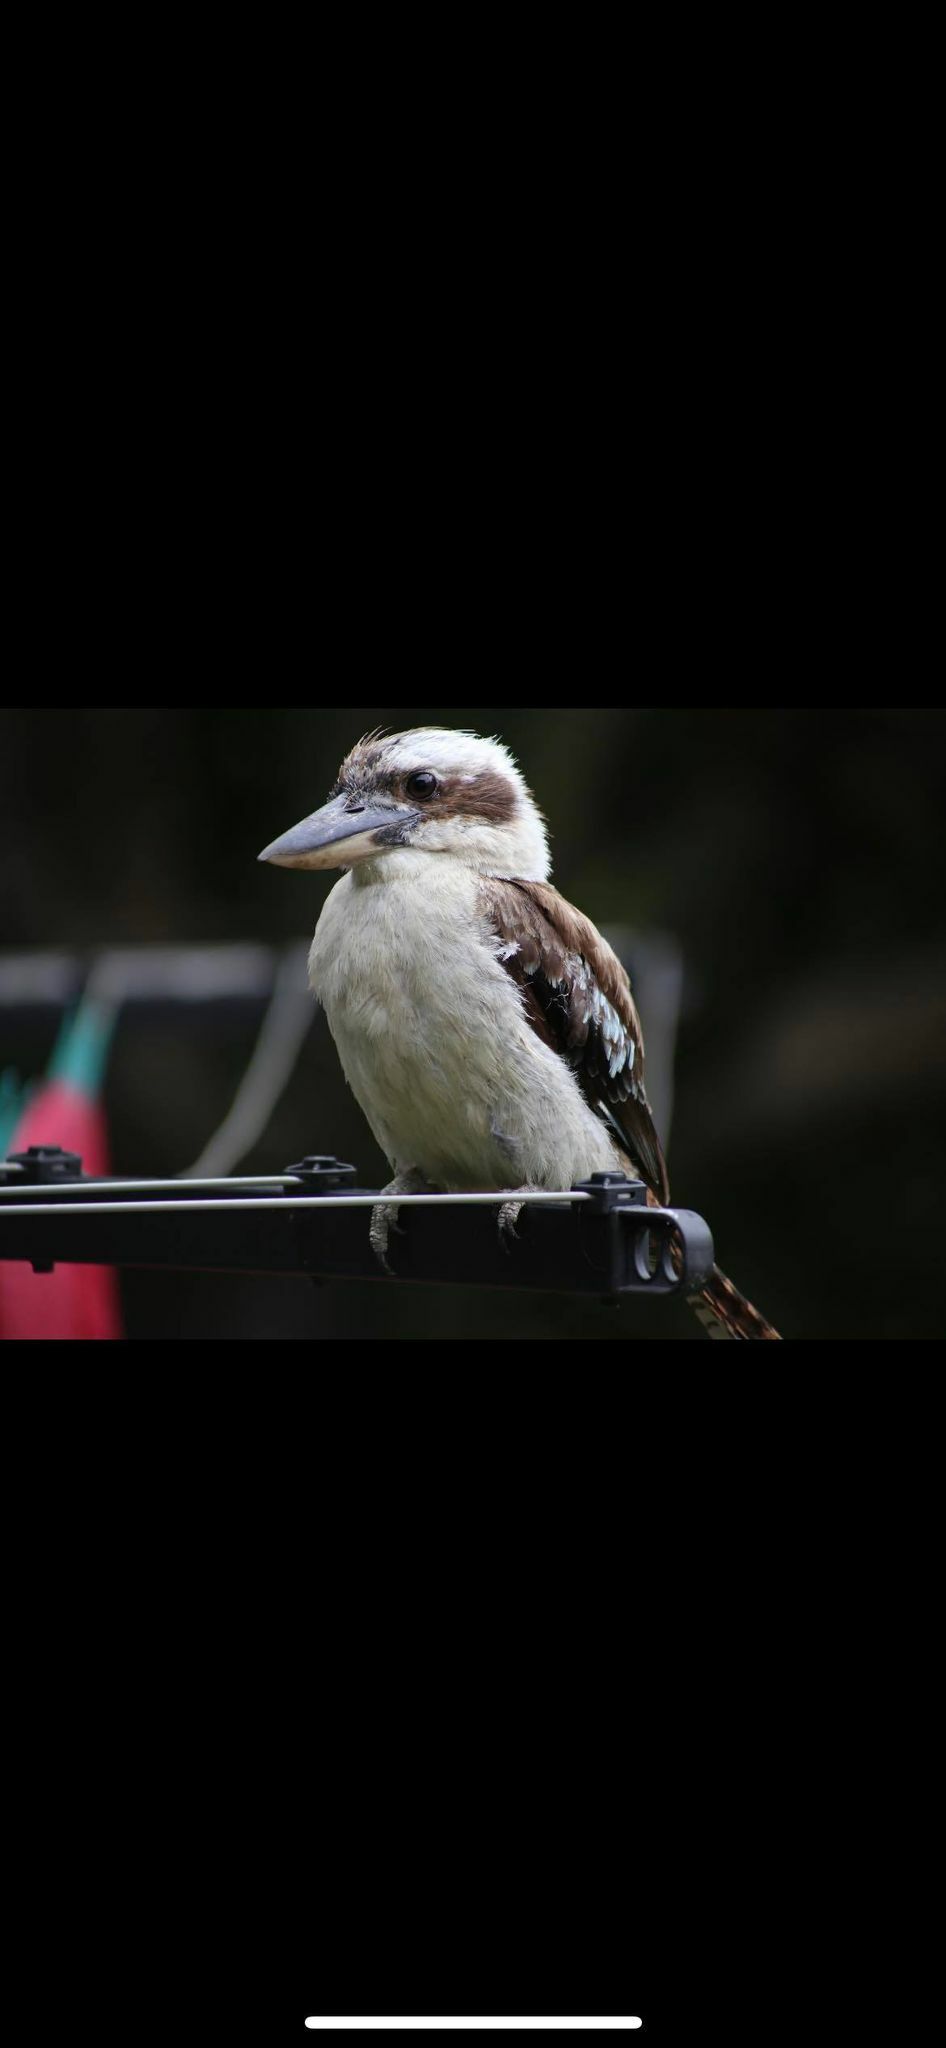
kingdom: Animalia
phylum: Chordata
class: Aves
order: Coraciiformes
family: Alcedinidae
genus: Dacelo
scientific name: Dacelo novaeguineae
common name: Laughing kookaburra
